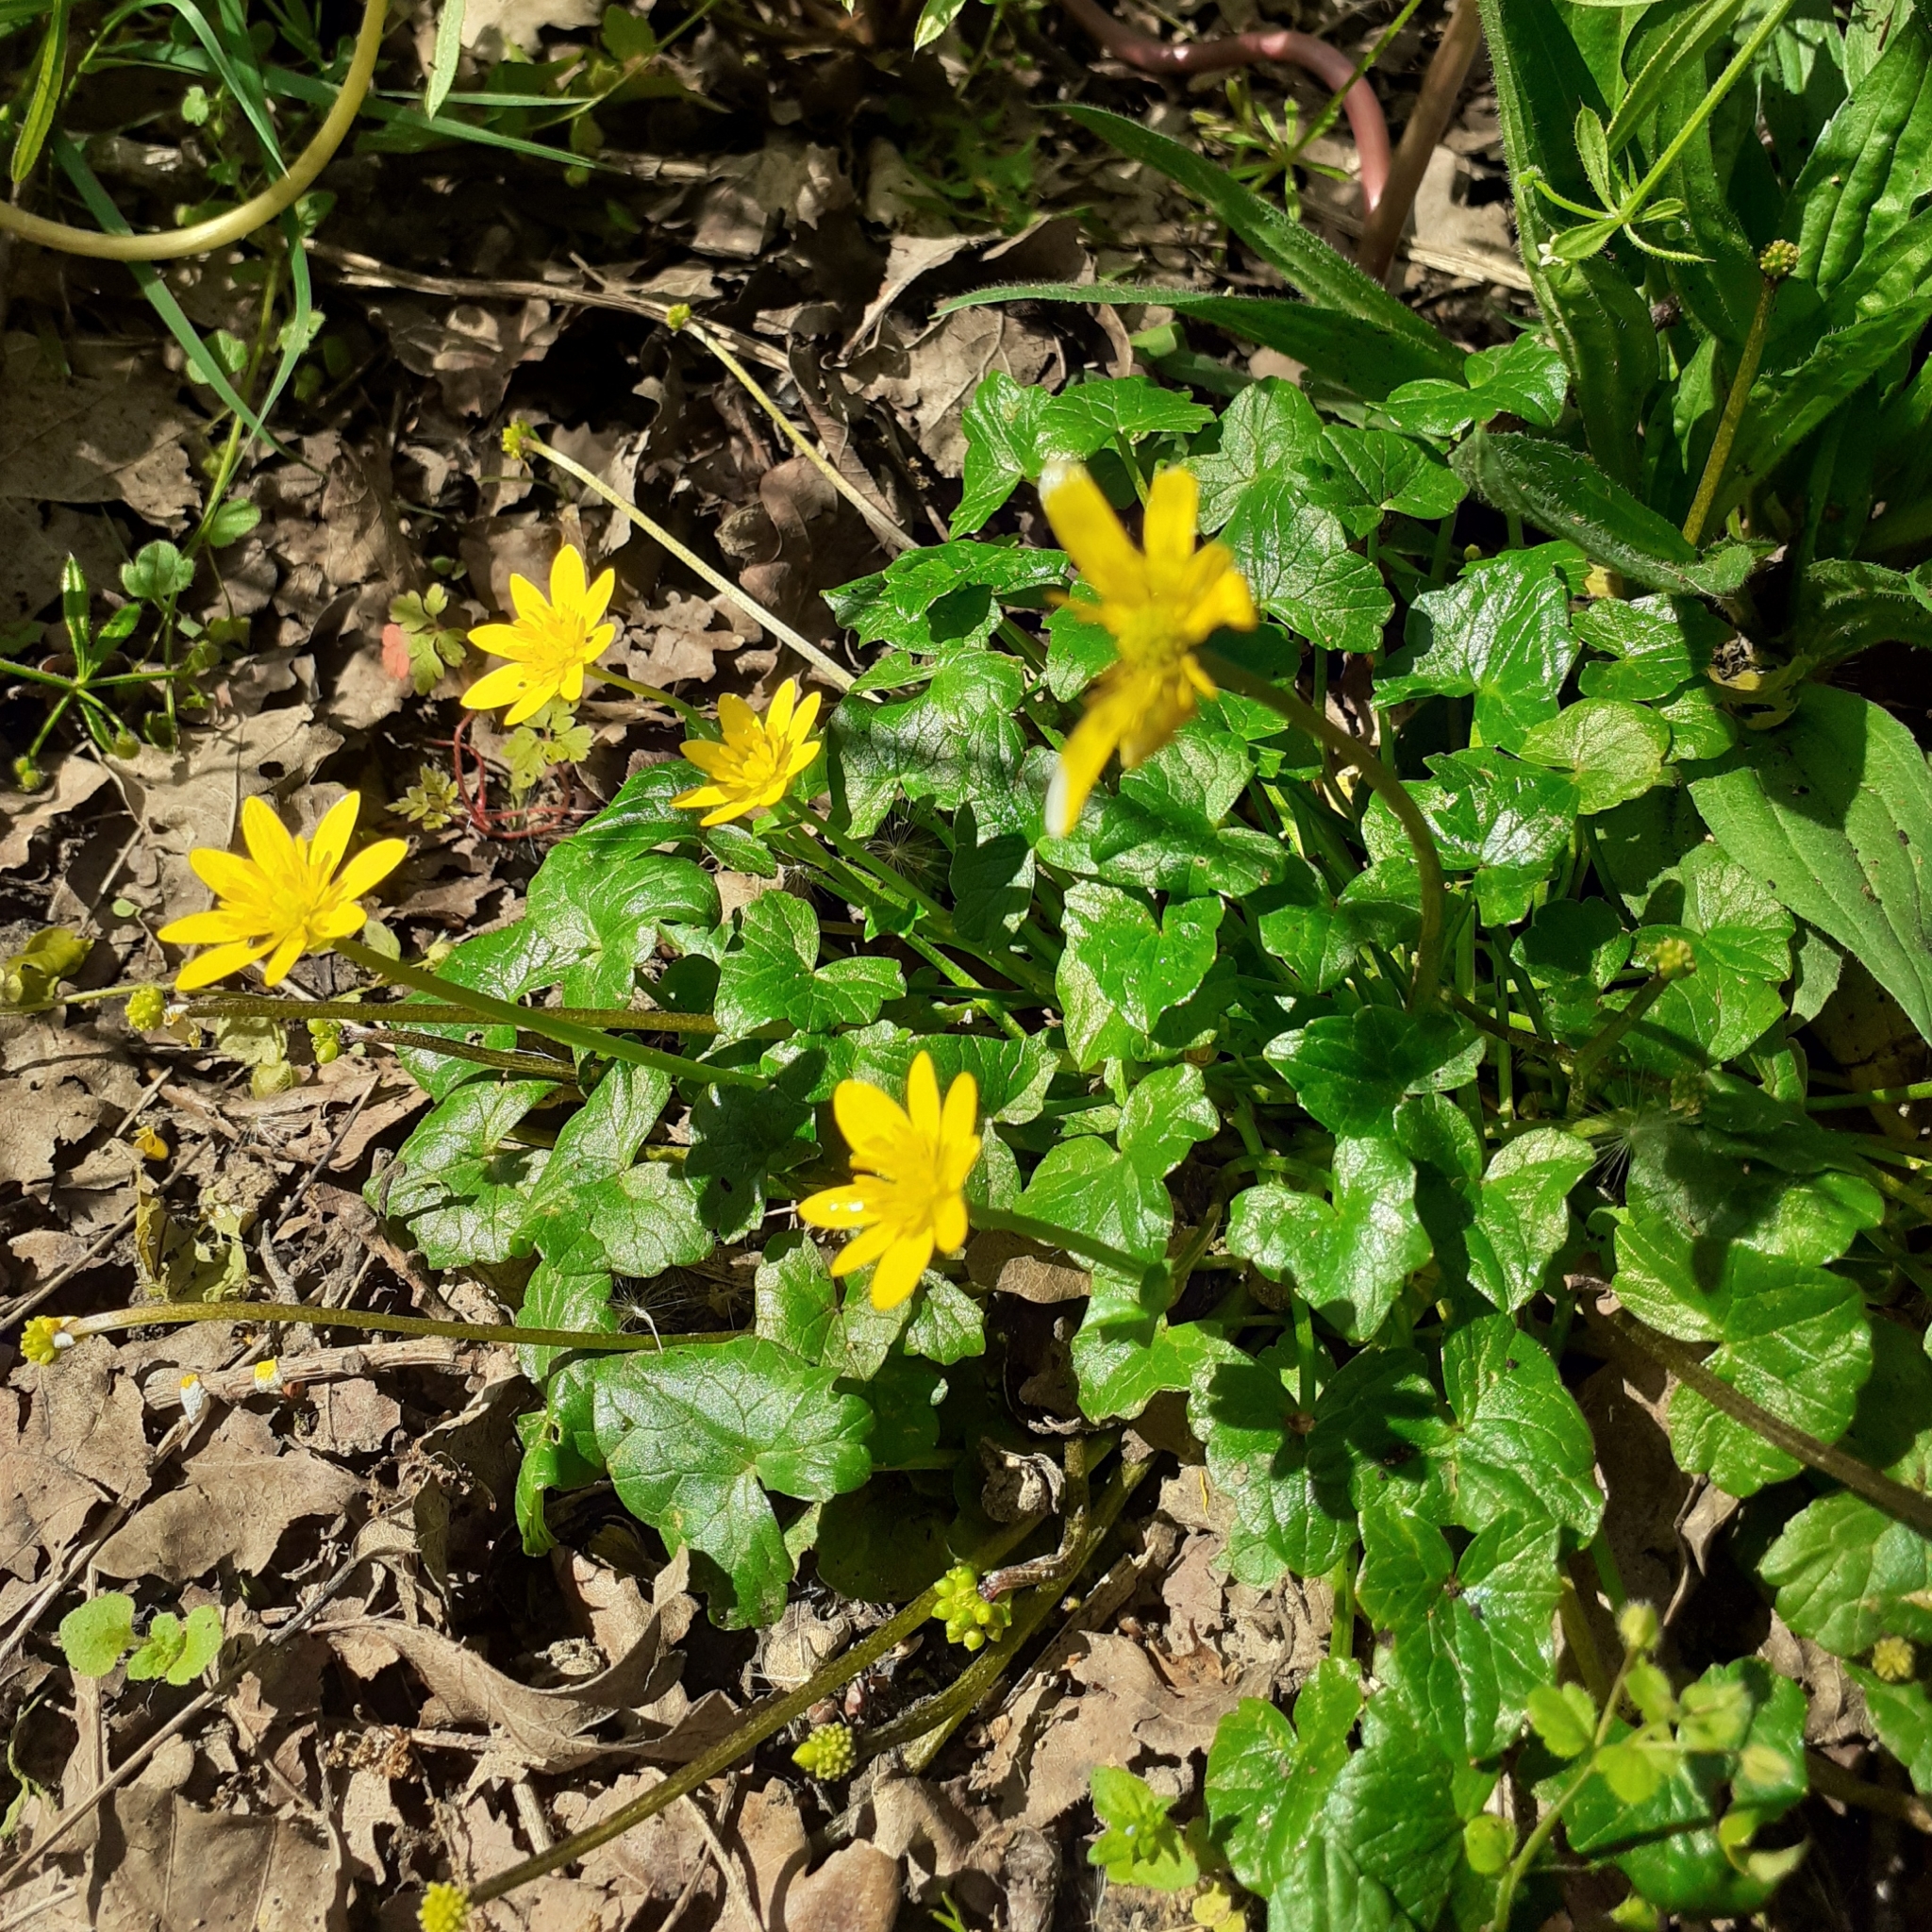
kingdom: Plantae
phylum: Tracheophyta
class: Magnoliopsida
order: Ranunculales
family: Ranunculaceae
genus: Ficaria
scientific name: Ficaria verna
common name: Lesser celandine
